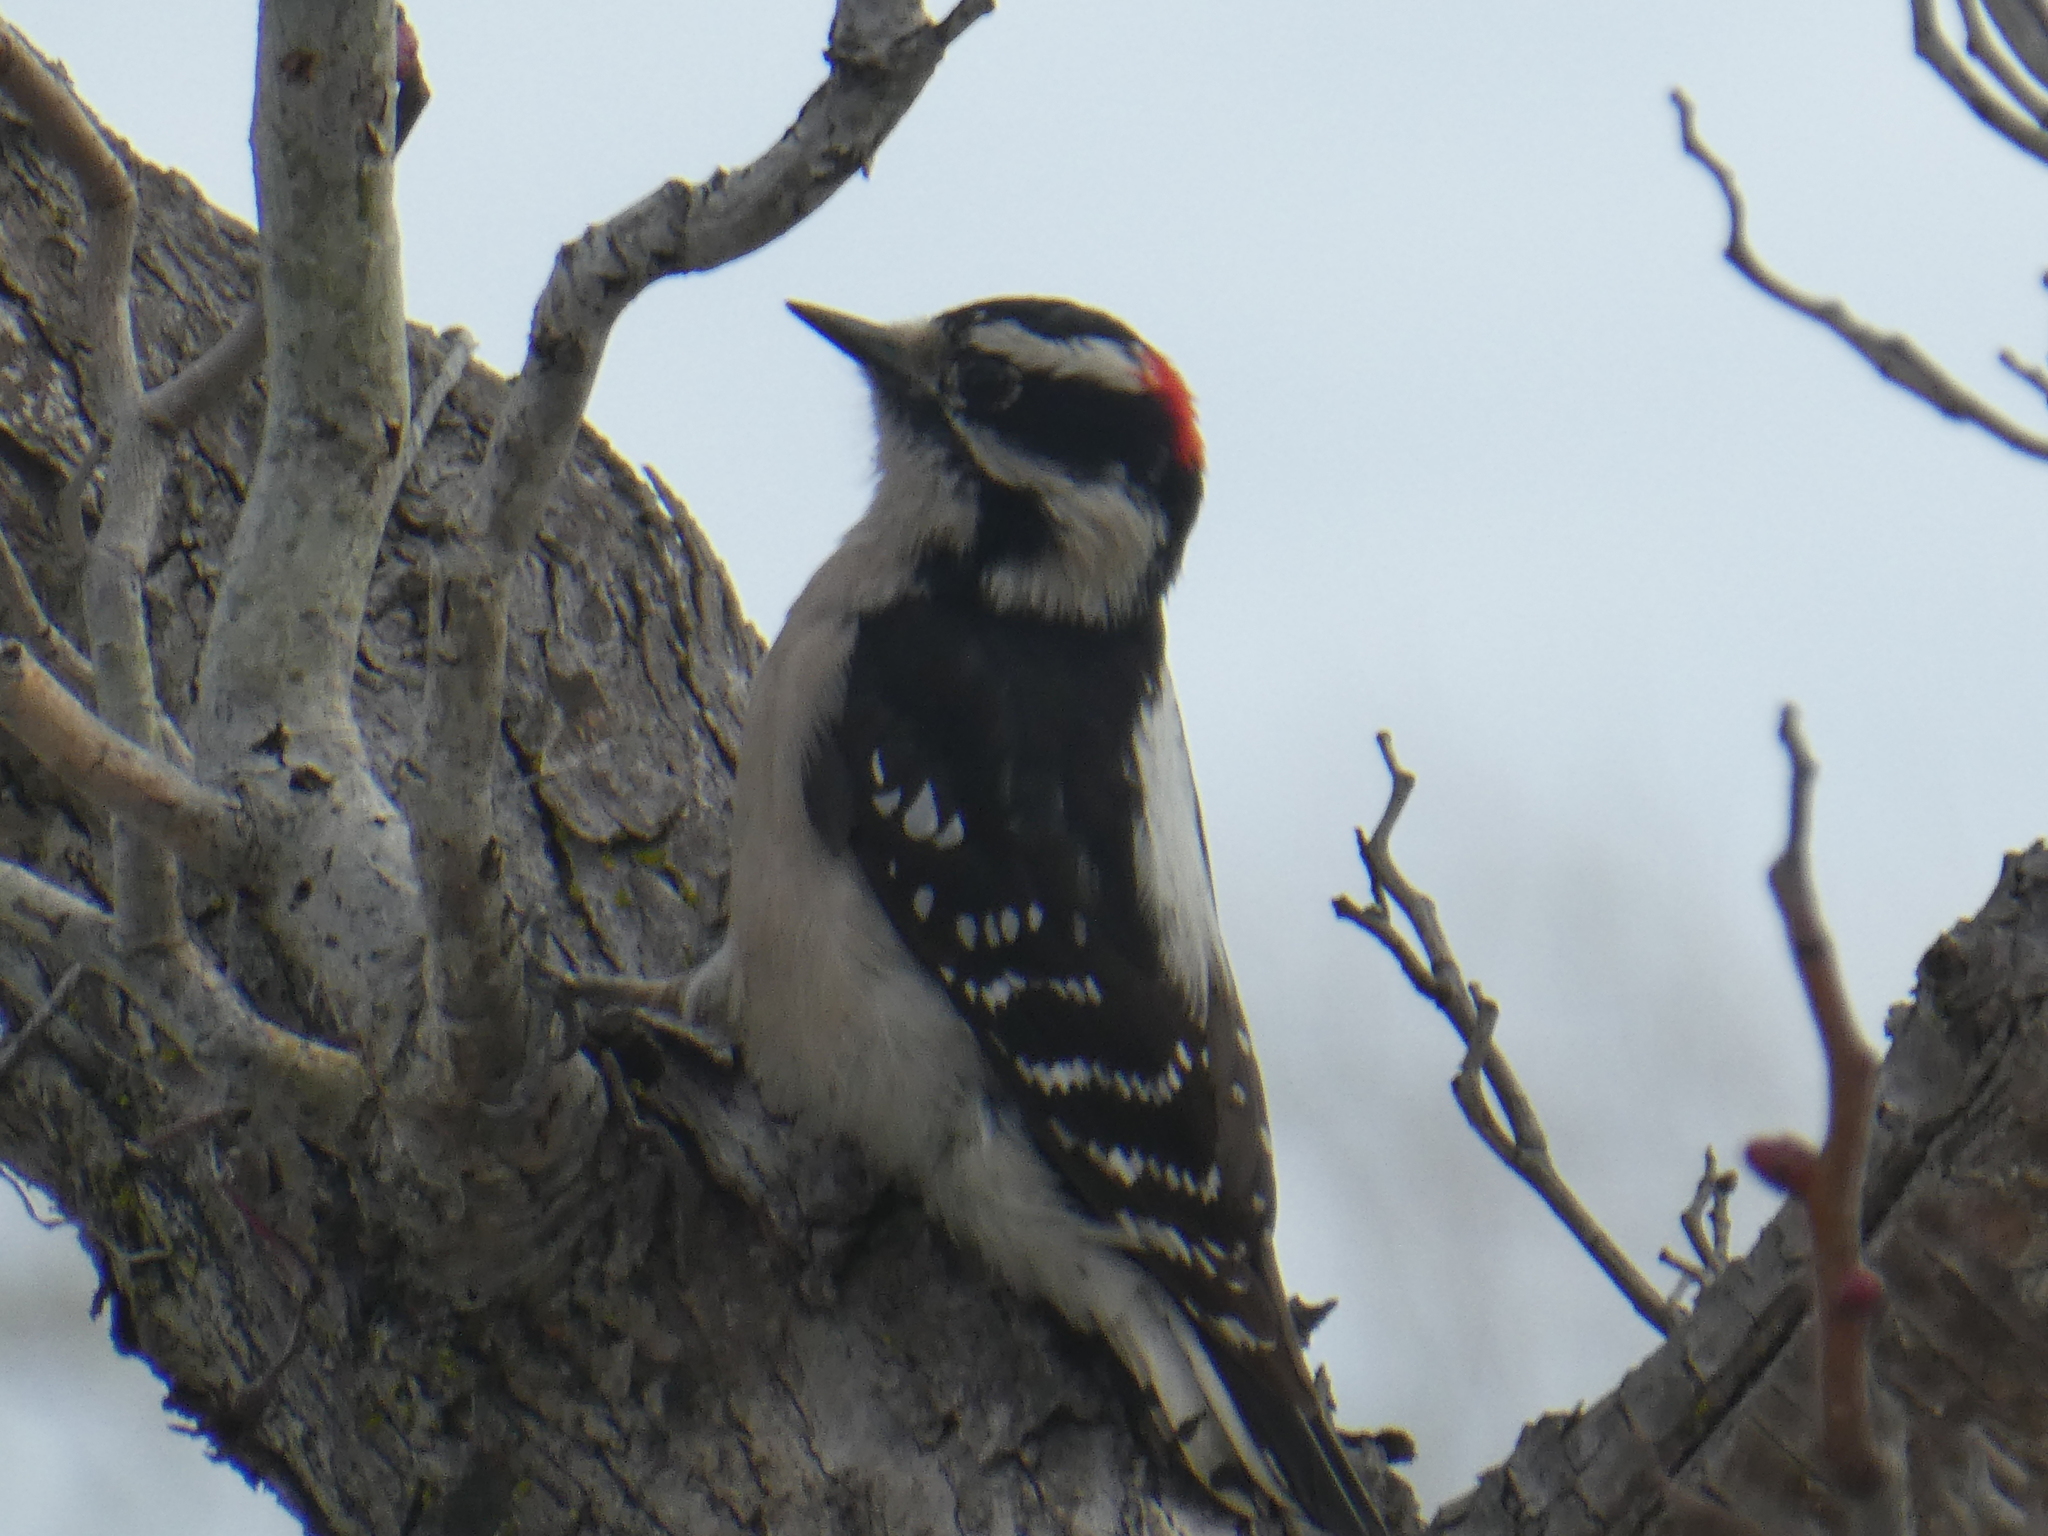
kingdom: Animalia
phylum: Chordata
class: Aves
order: Piciformes
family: Picidae
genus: Dryobates
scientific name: Dryobates pubescens
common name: Downy woodpecker
